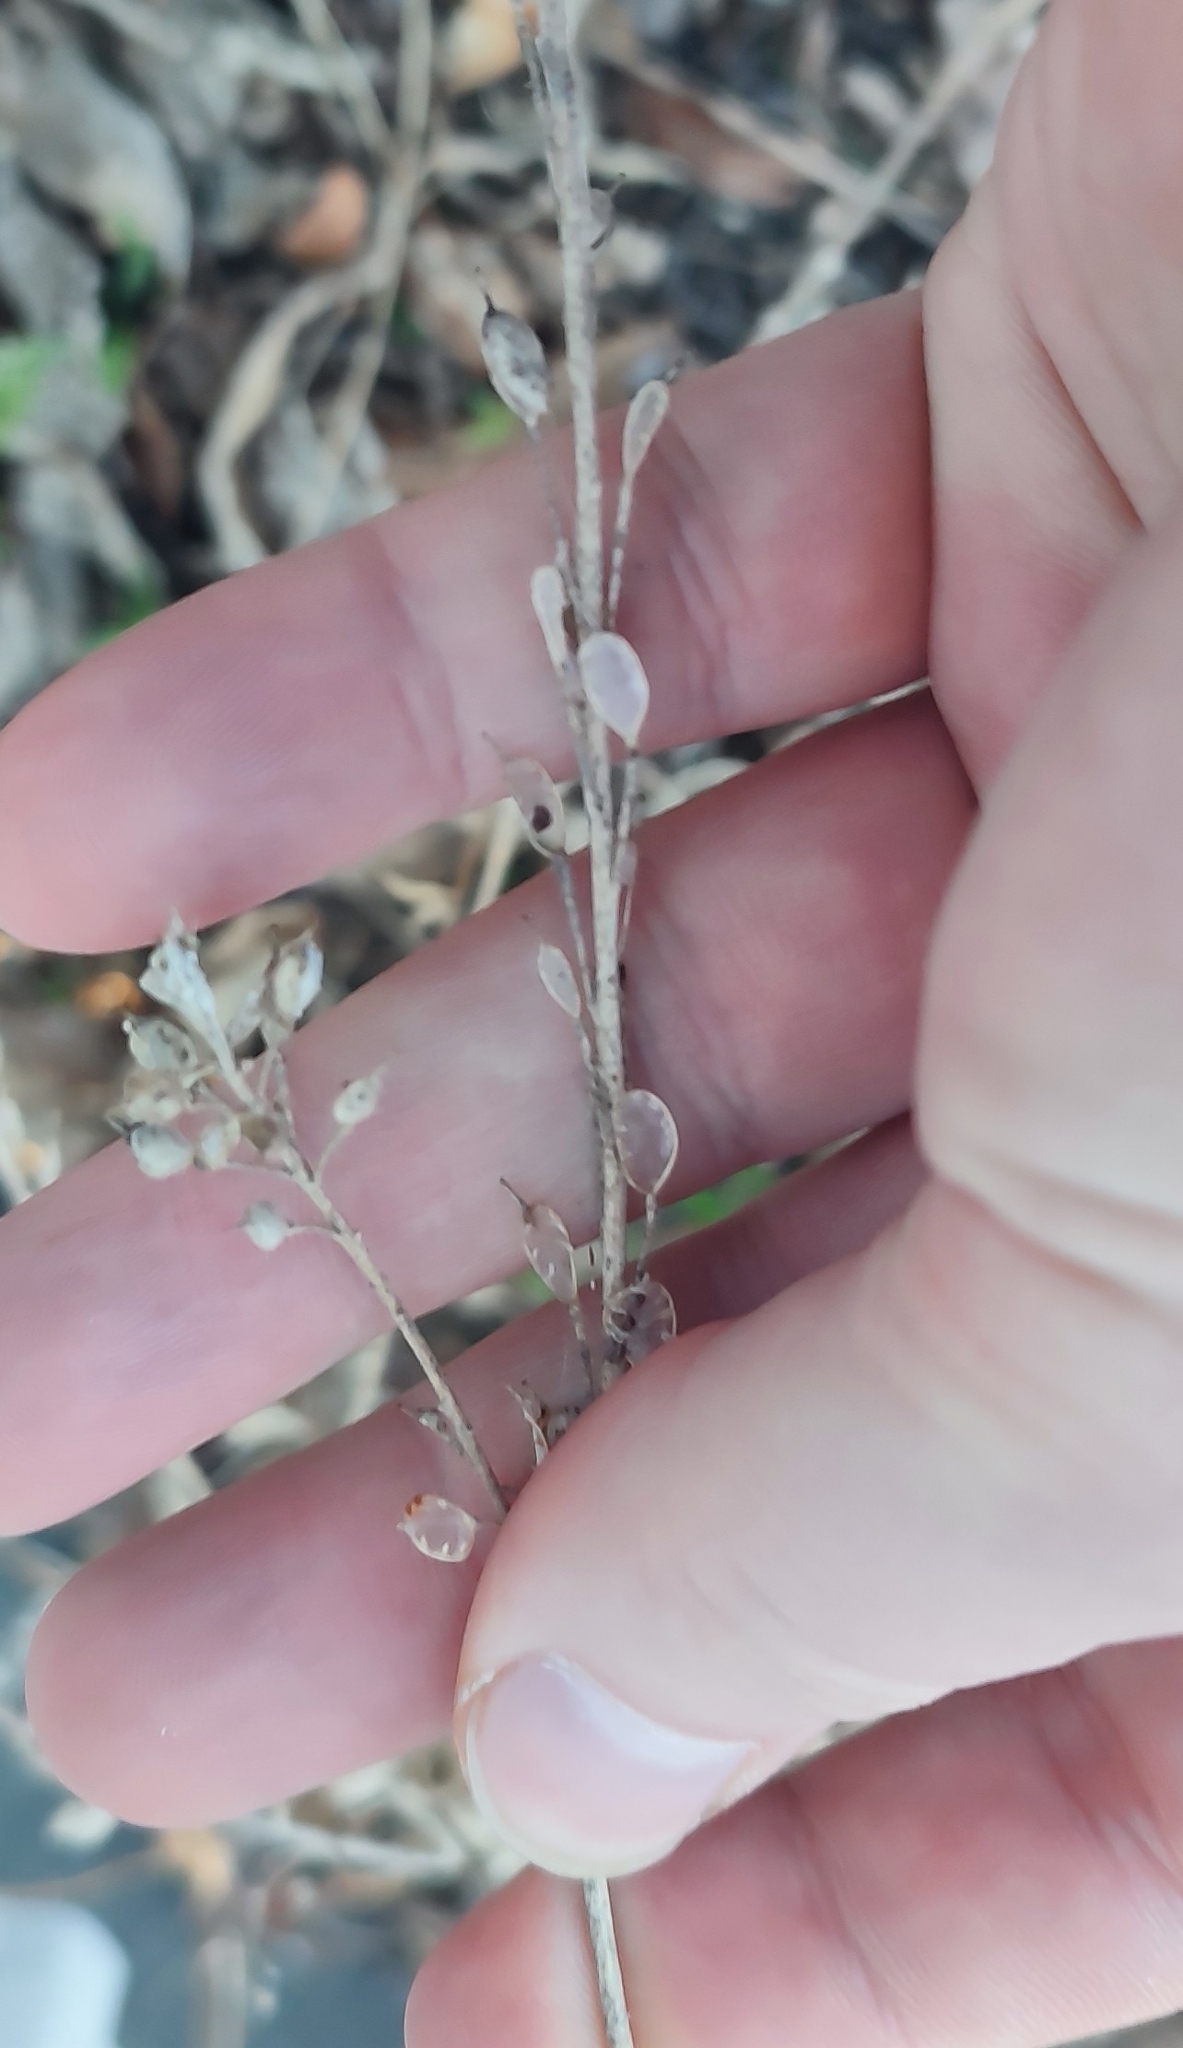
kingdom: Plantae
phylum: Tracheophyta
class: Magnoliopsida
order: Brassicales
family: Brassicaceae
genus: Berteroa
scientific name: Berteroa incana
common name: Hoary alison
